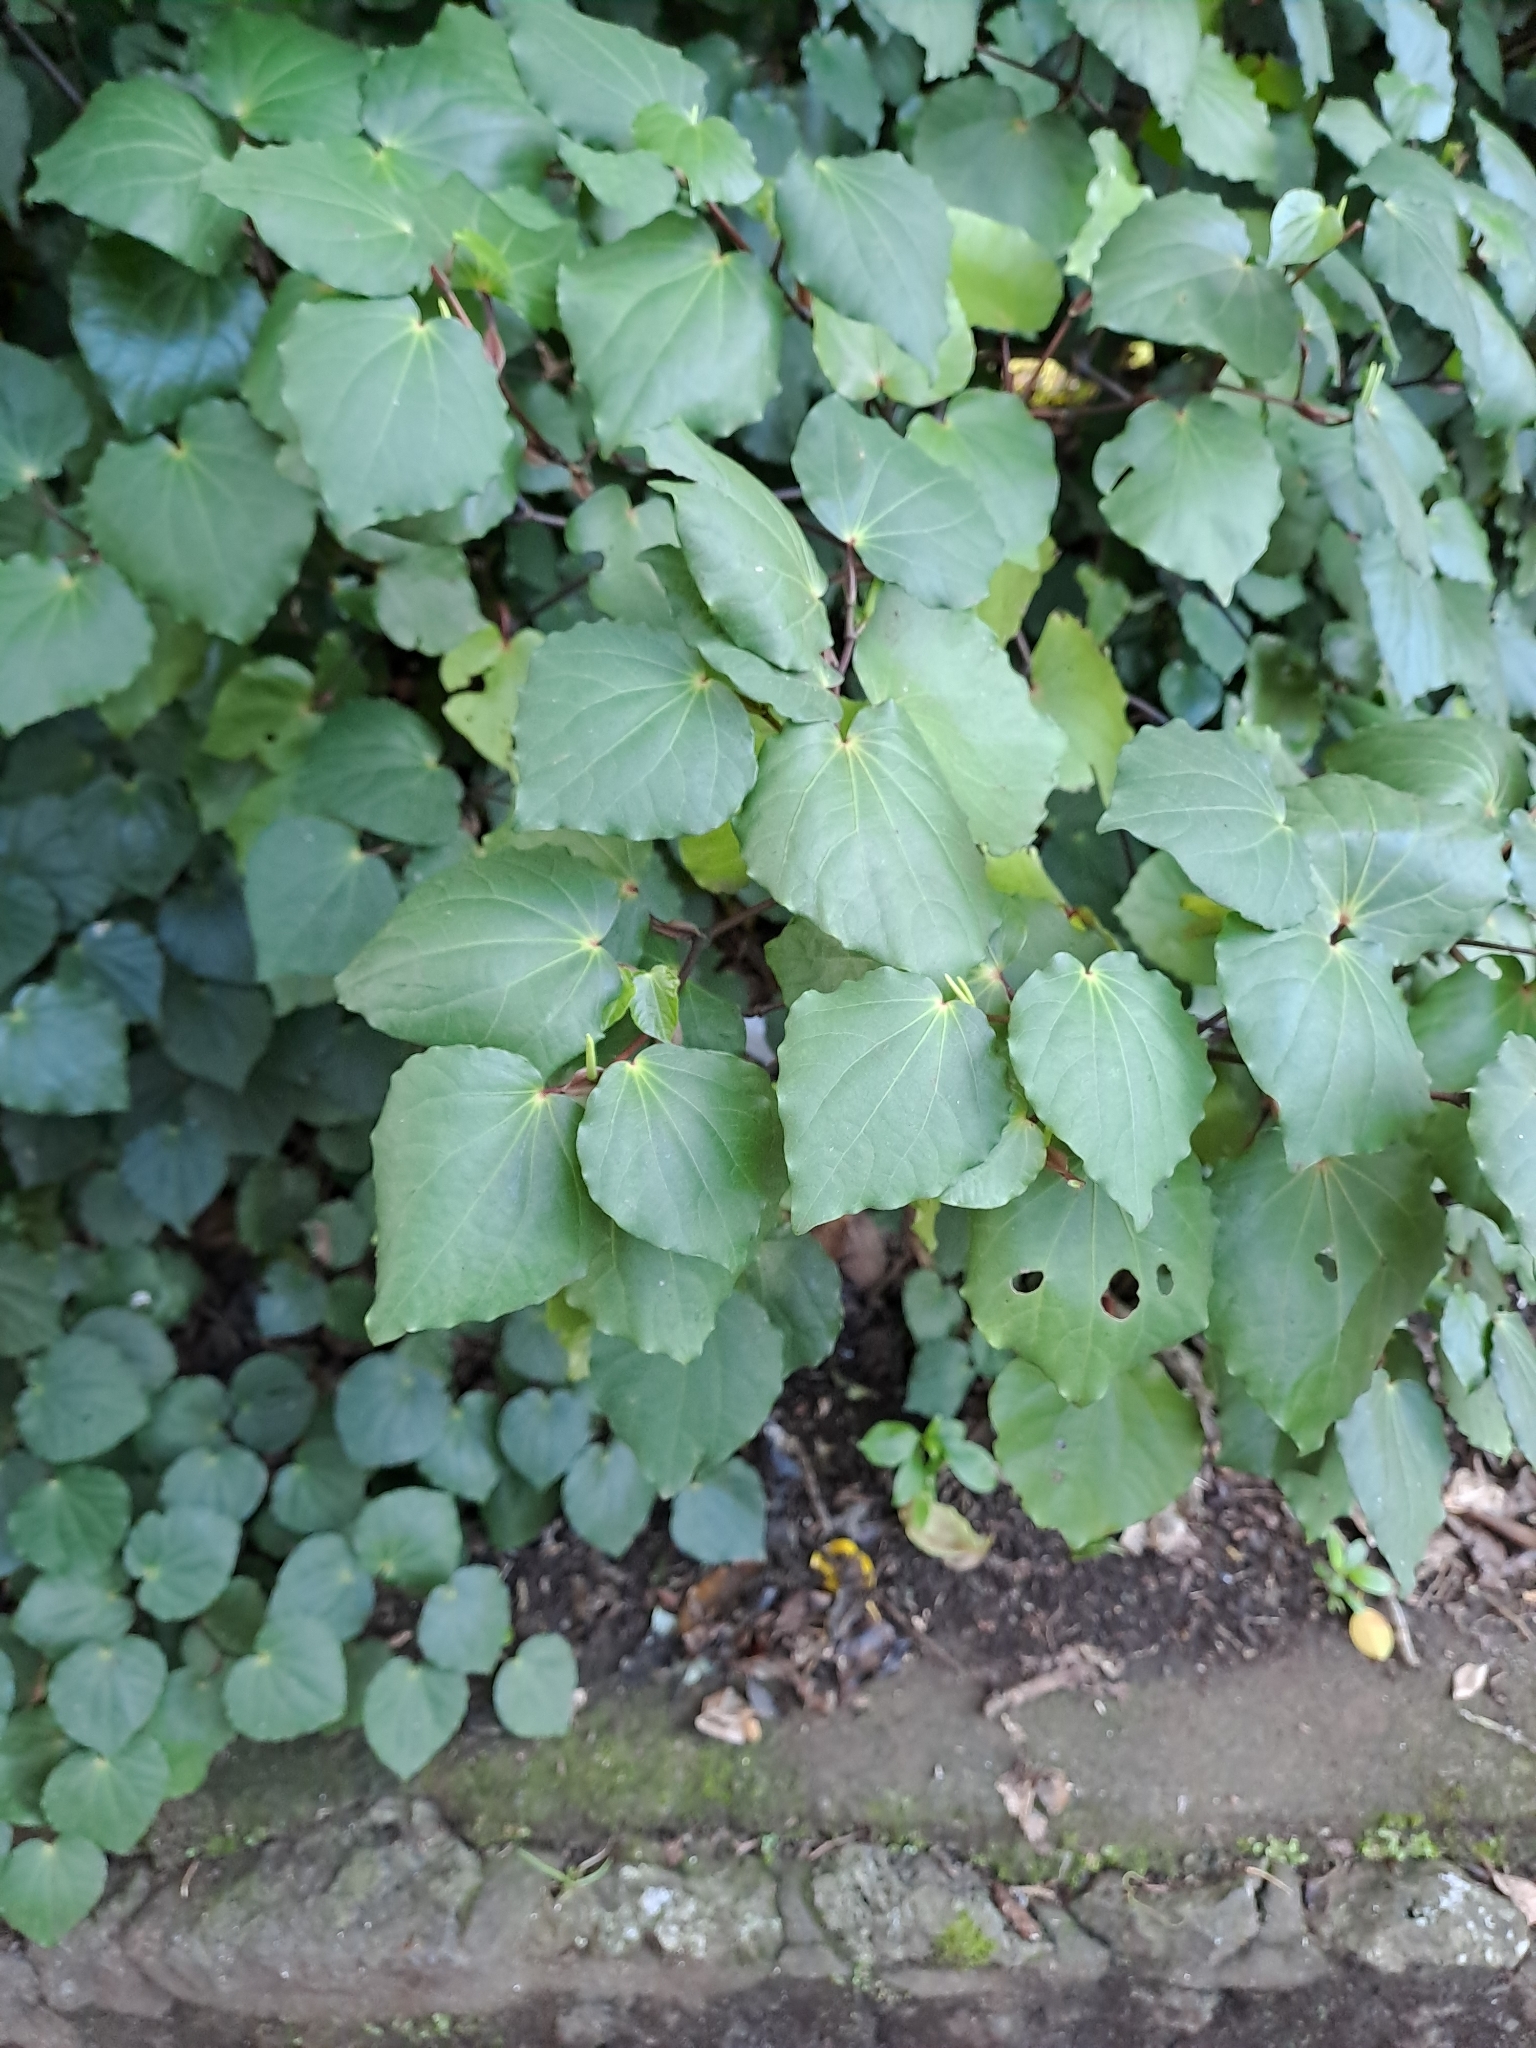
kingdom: Plantae
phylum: Tracheophyta
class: Magnoliopsida
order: Piperales
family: Piperaceae
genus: Macropiper
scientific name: Macropiper excelsum
